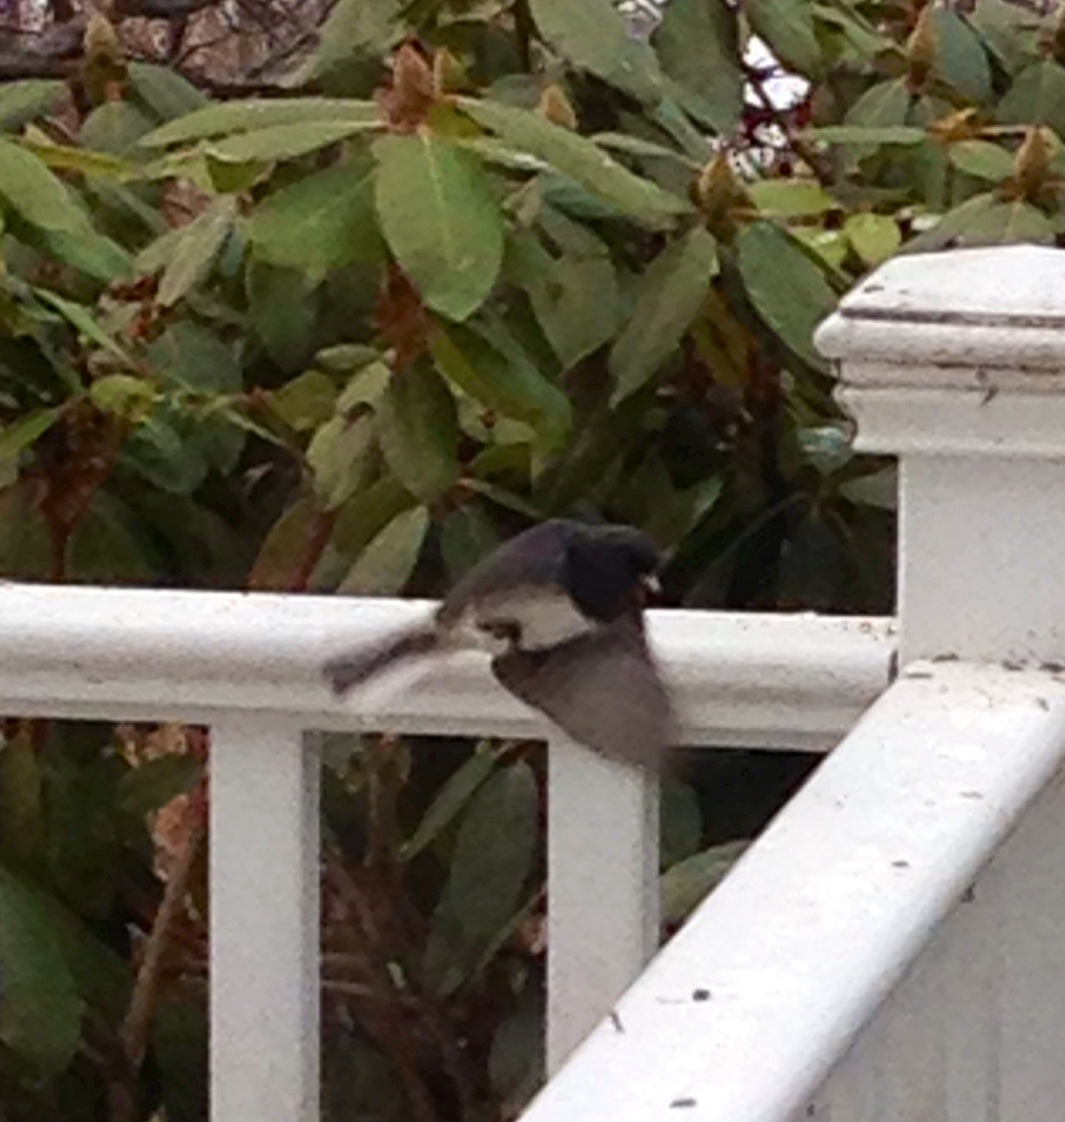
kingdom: Animalia
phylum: Chordata
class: Aves
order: Passeriformes
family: Passerellidae
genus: Junco
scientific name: Junco hyemalis
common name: Dark-eyed junco
